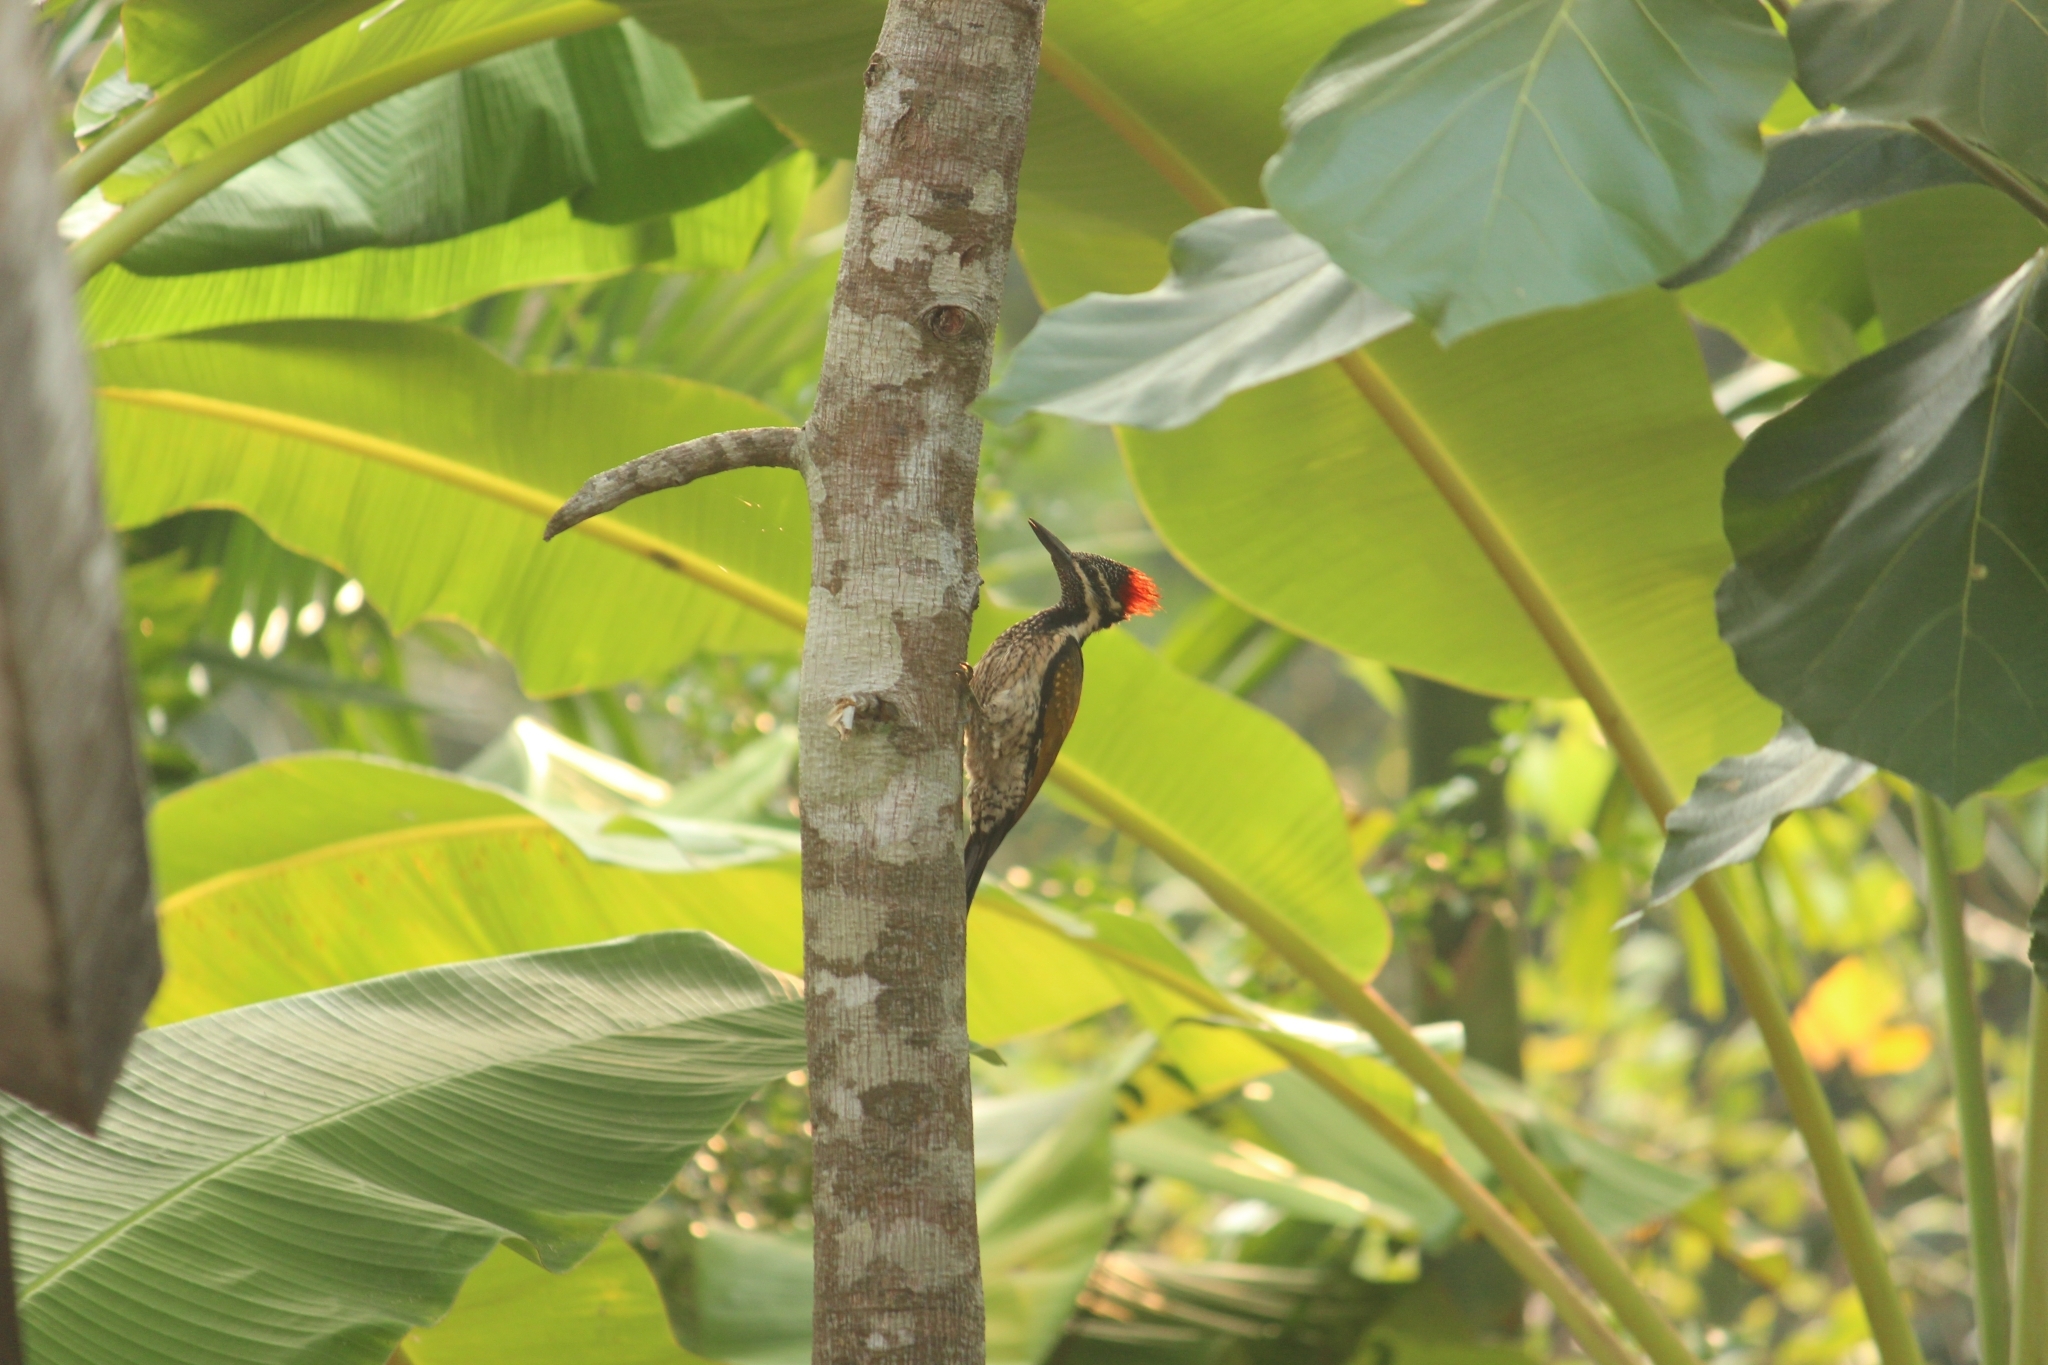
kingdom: Animalia
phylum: Chordata
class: Aves
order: Piciformes
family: Picidae
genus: Dinopium
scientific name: Dinopium benghalense
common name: Black-rumped flameback
